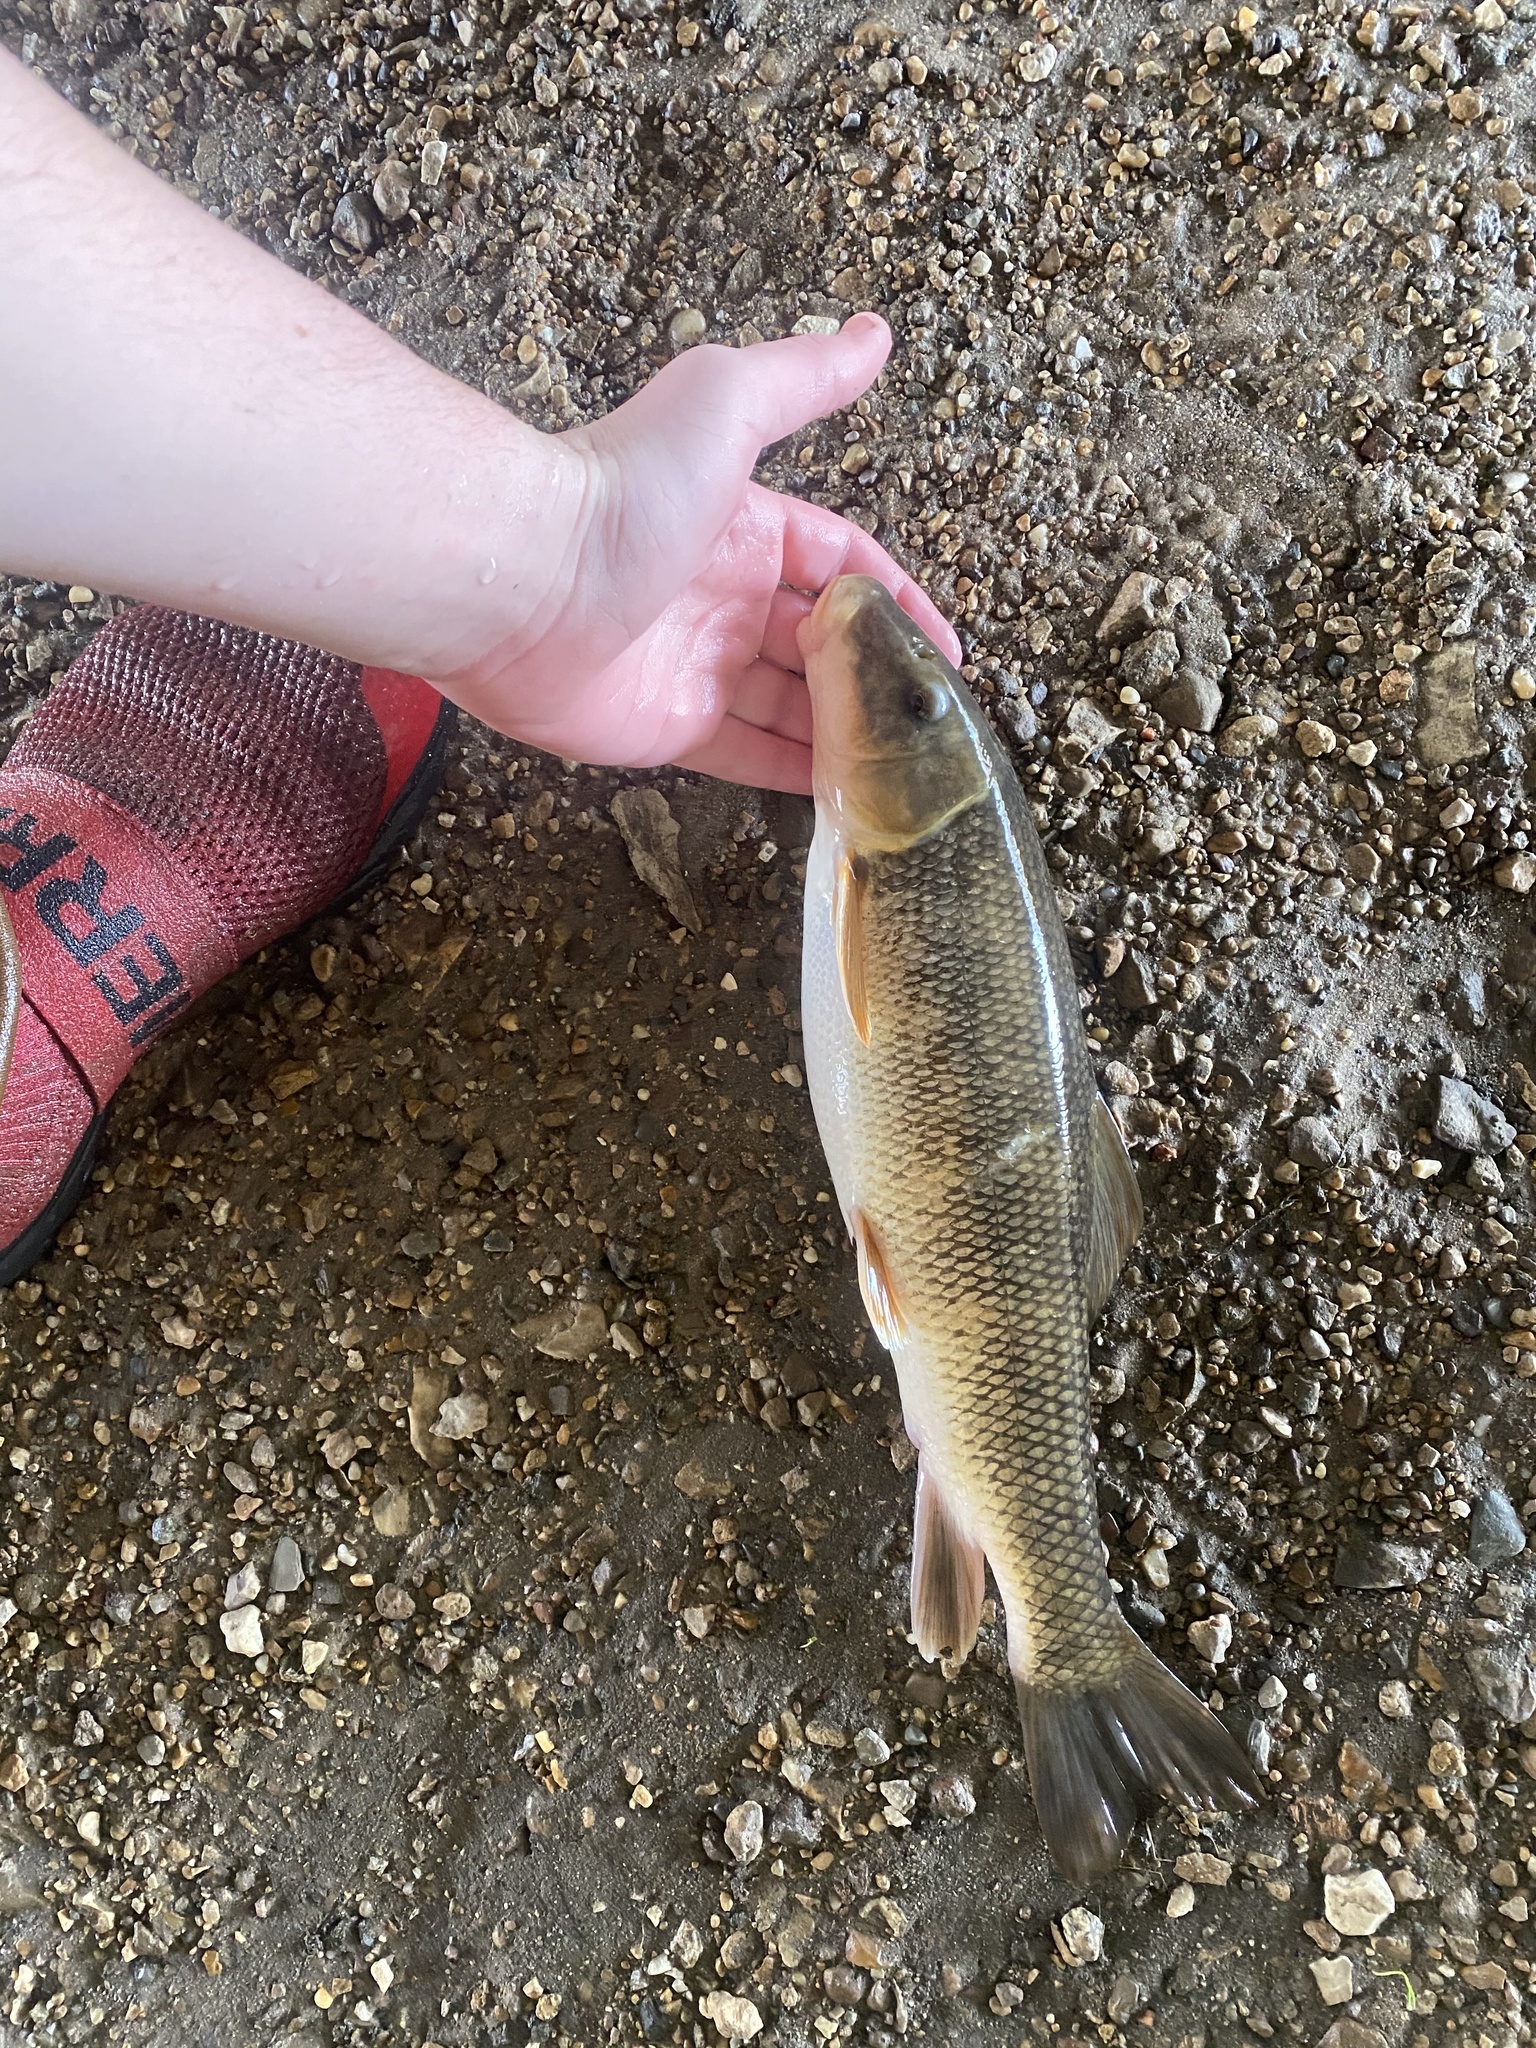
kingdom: Animalia
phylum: Chordata
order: Cypriniformes
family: Catostomidae
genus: Catostomus
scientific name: Catostomus commersonii
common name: White sucker
